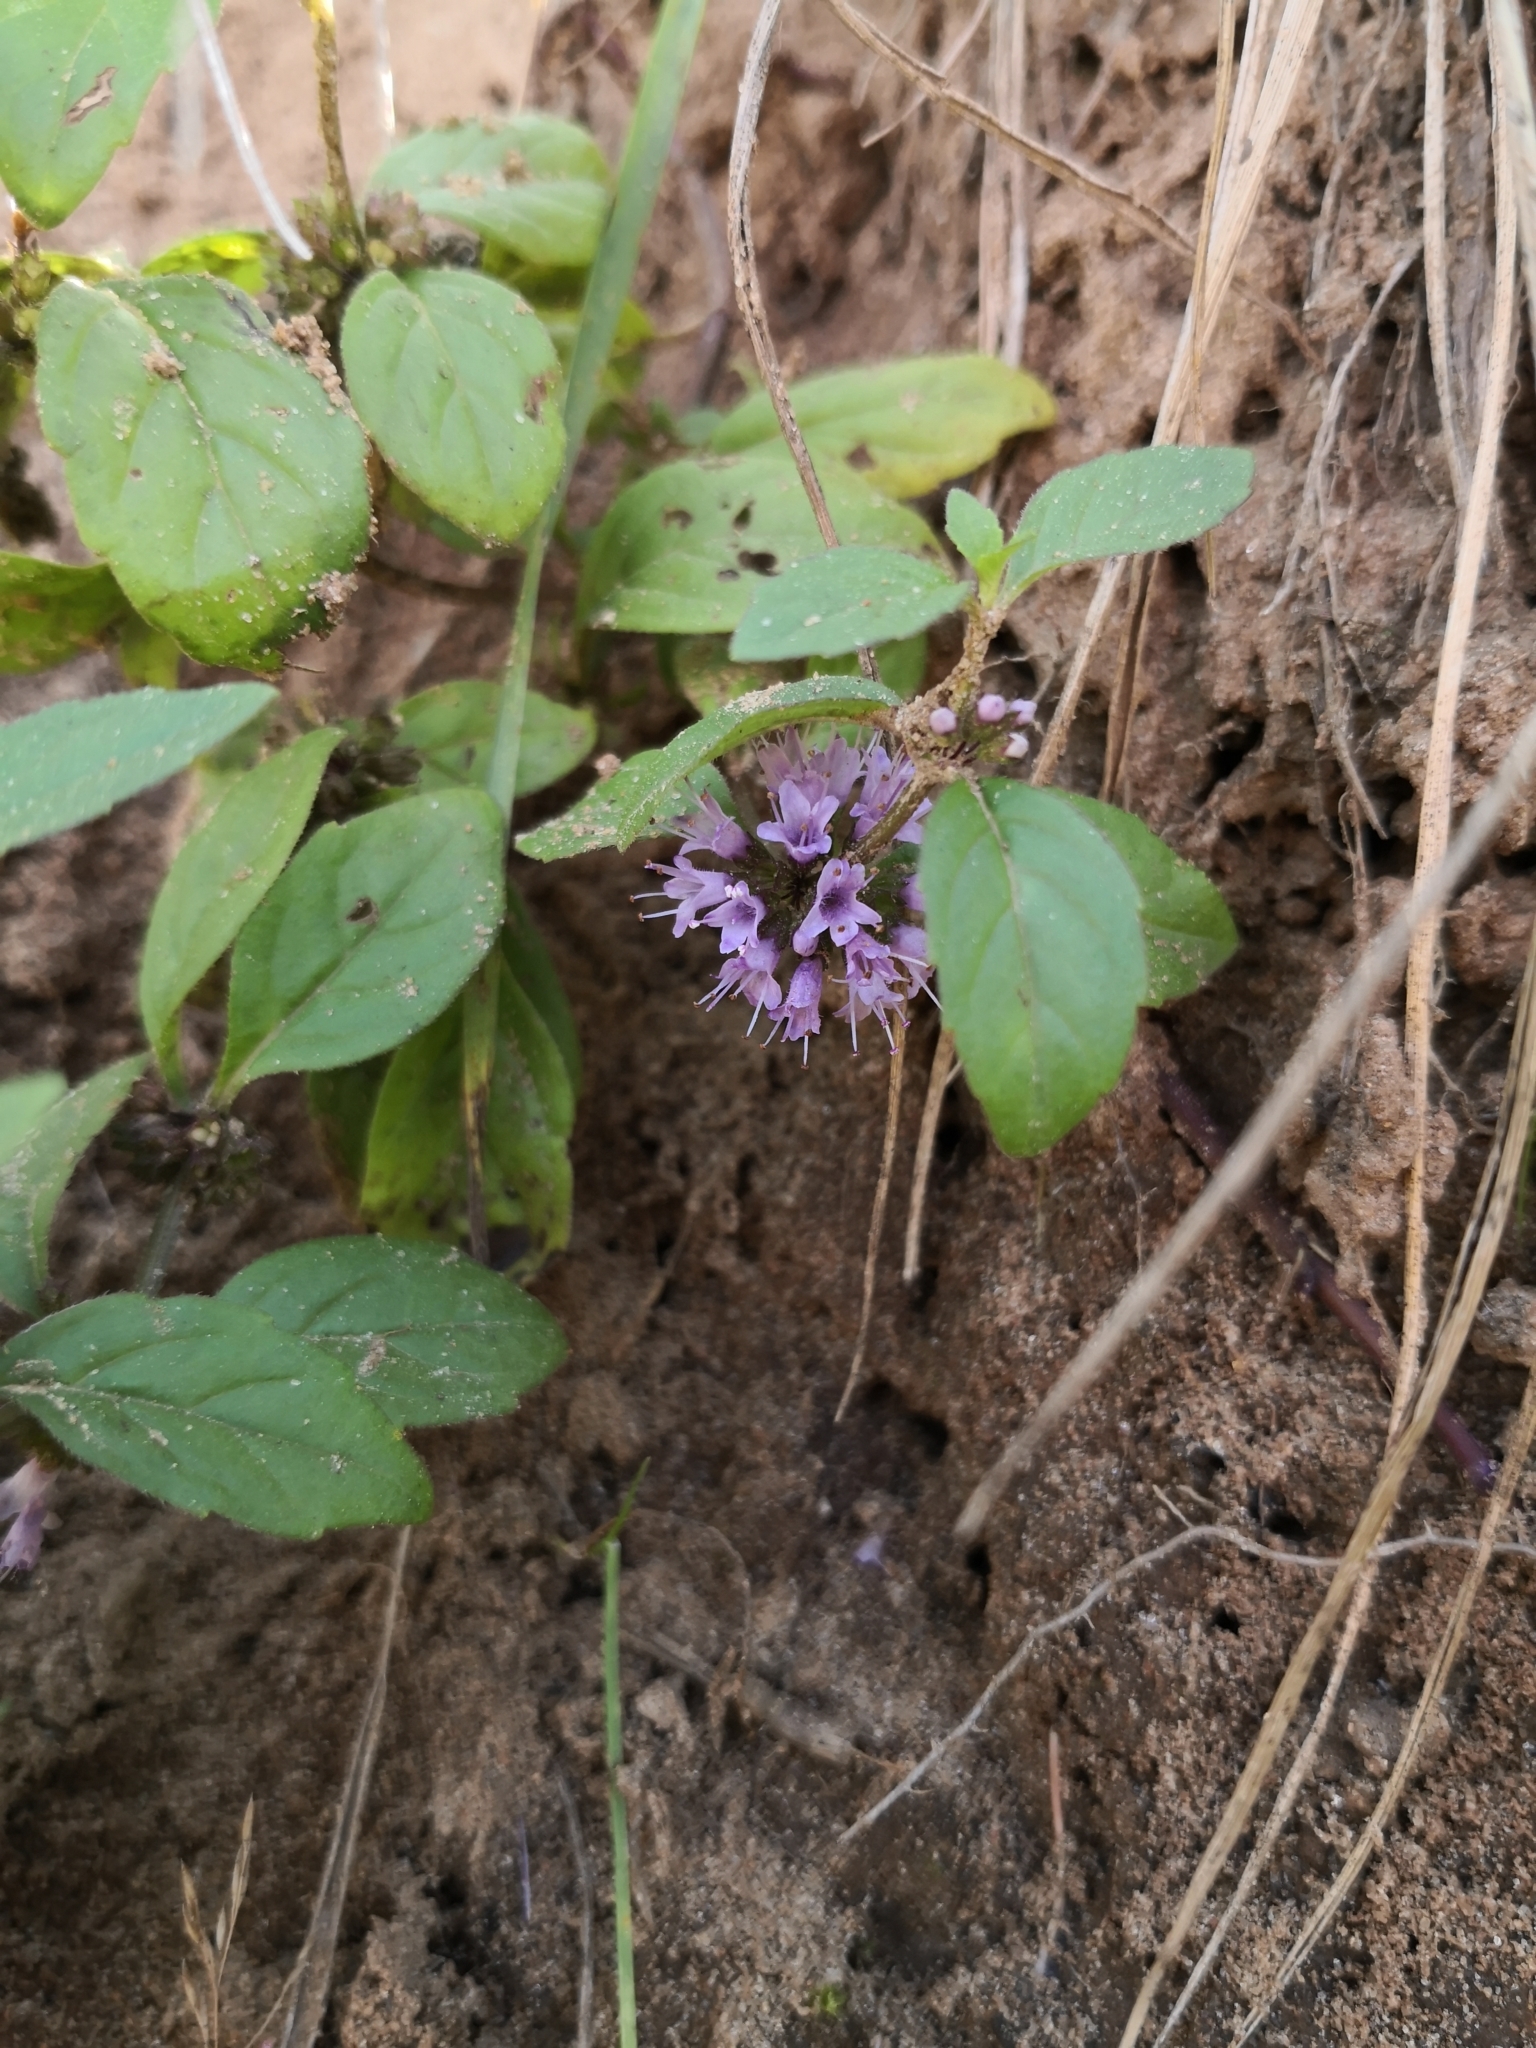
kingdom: Plantae
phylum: Tracheophyta
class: Magnoliopsida
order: Lamiales
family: Lamiaceae
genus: Mentha
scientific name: Mentha arvensis
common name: Corn mint
